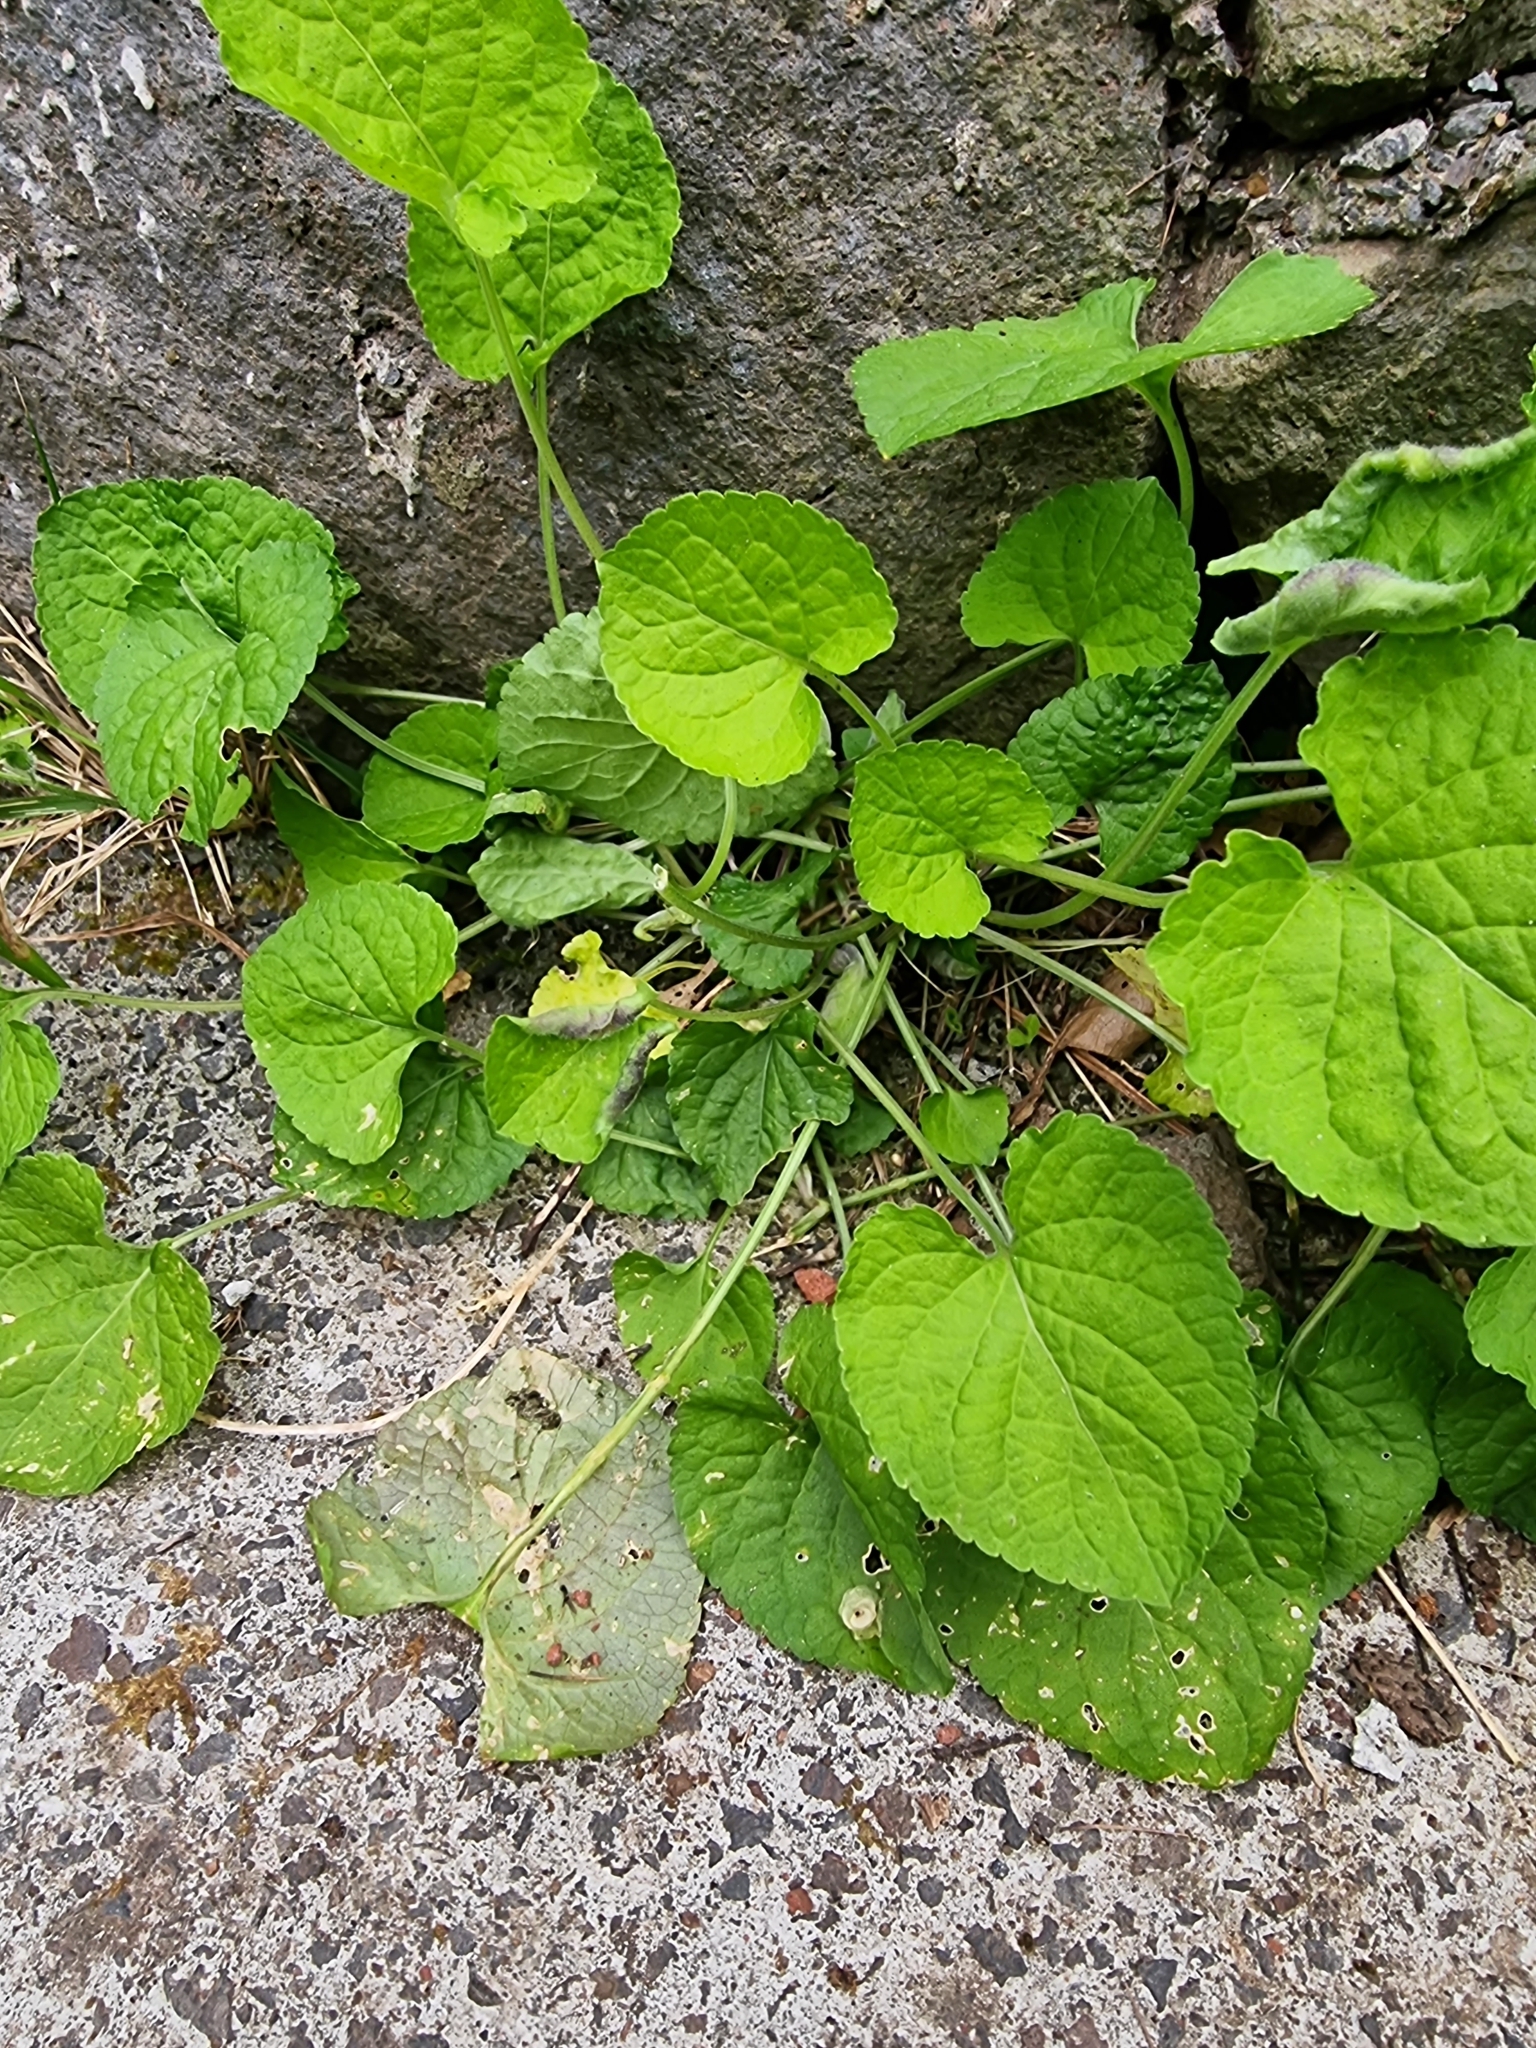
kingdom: Plantae
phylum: Tracheophyta
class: Magnoliopsida
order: Malpighiales
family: Violaceae
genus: Viola
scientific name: Viola odorata
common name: Sweet violet
